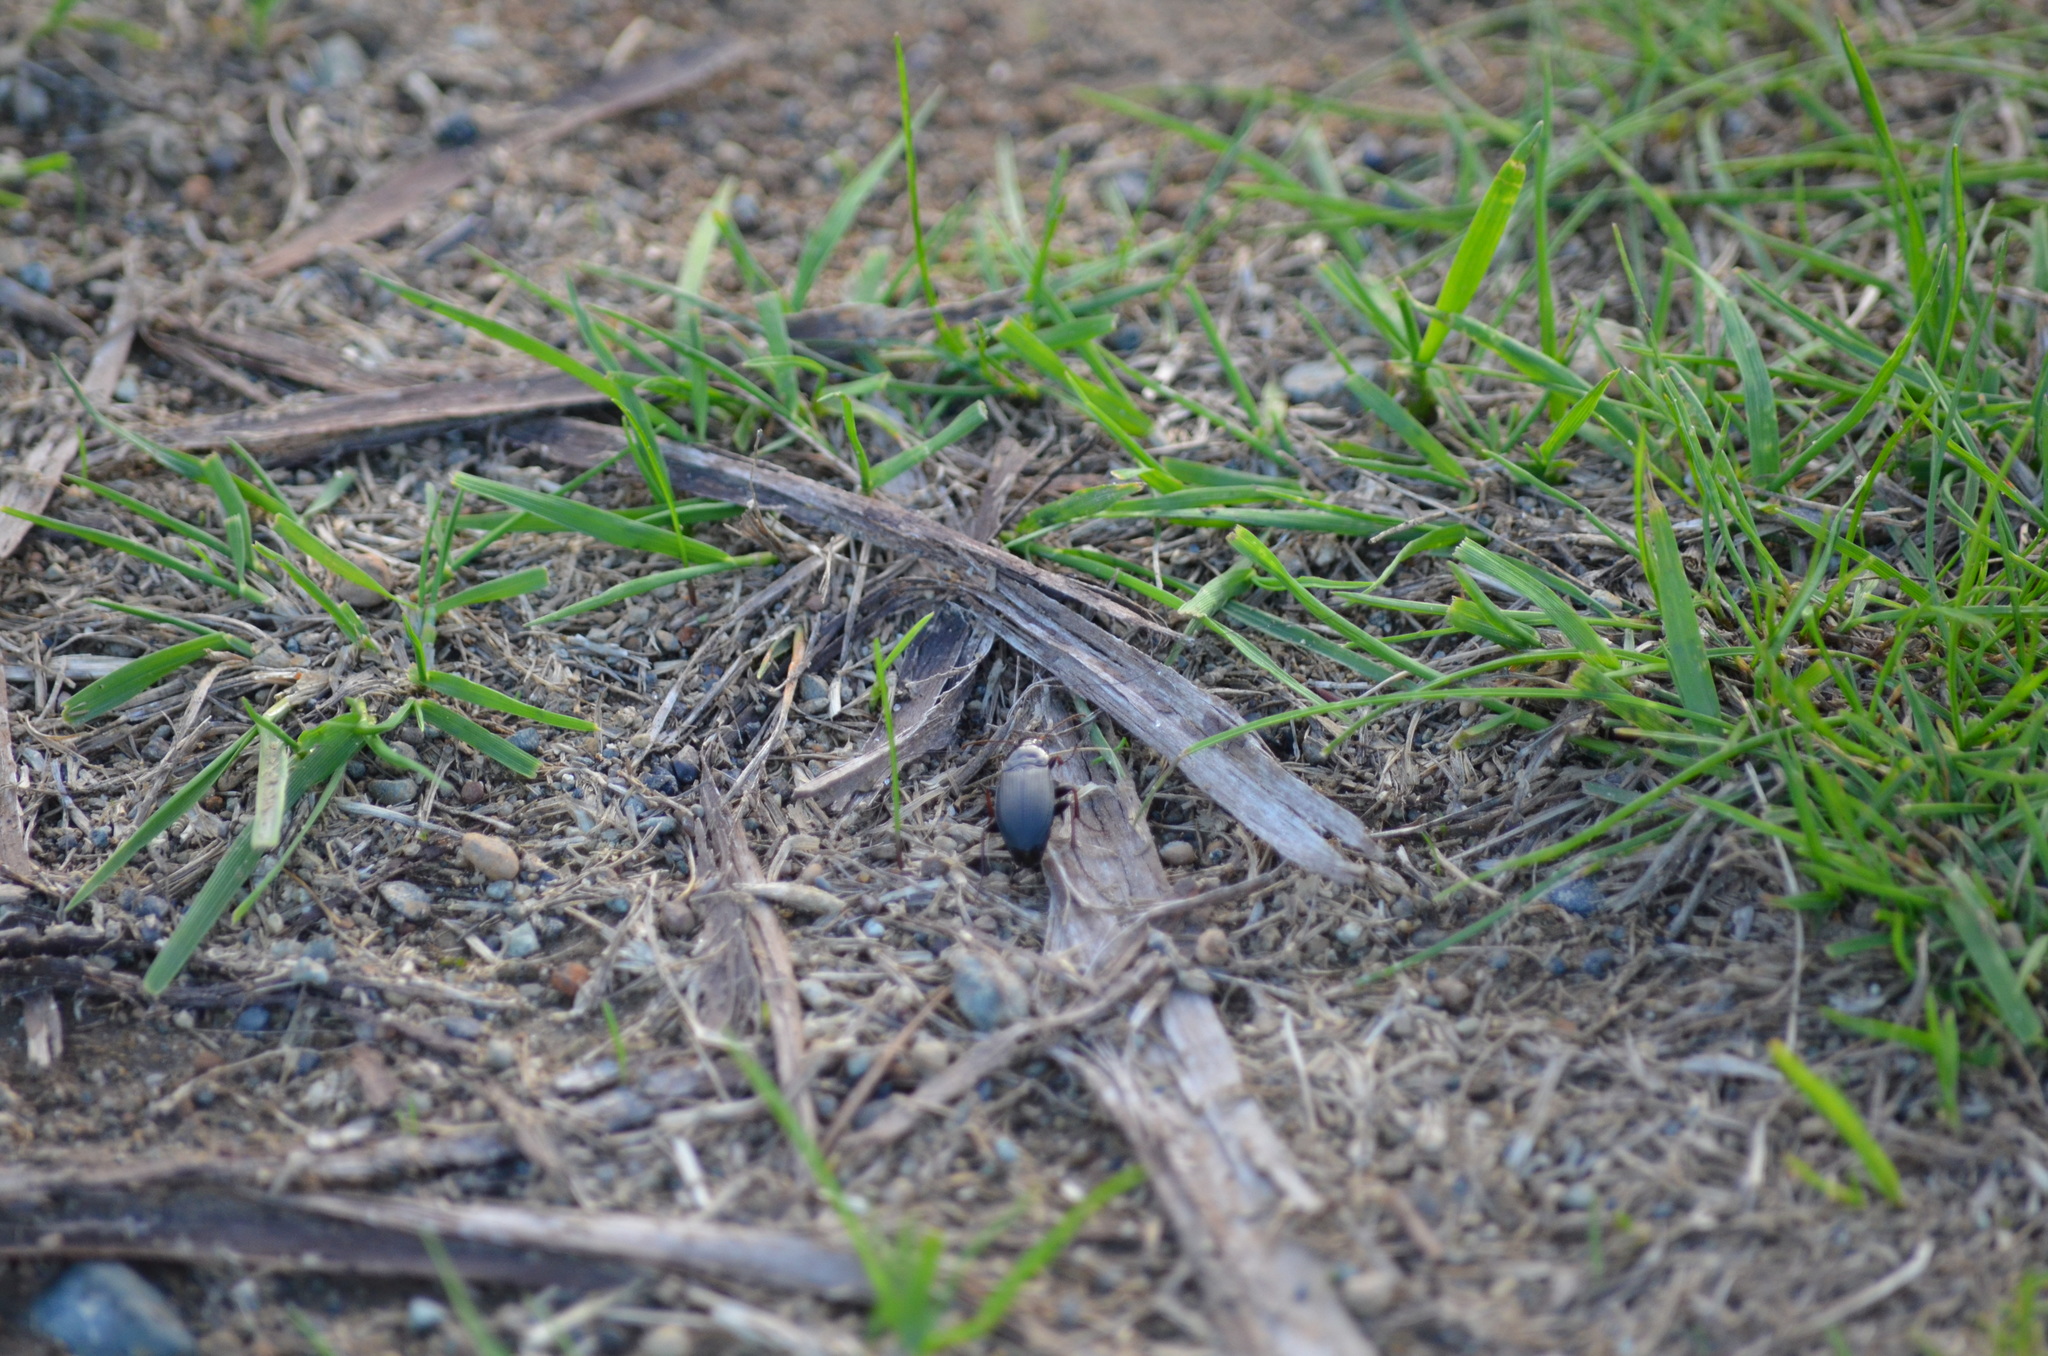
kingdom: Animalia
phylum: Arthropoda
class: Insecta
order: Coleoptera
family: Carabidae
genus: Calathus
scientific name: Calathus fuscipes
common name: Dark-footed harp ground beetle
